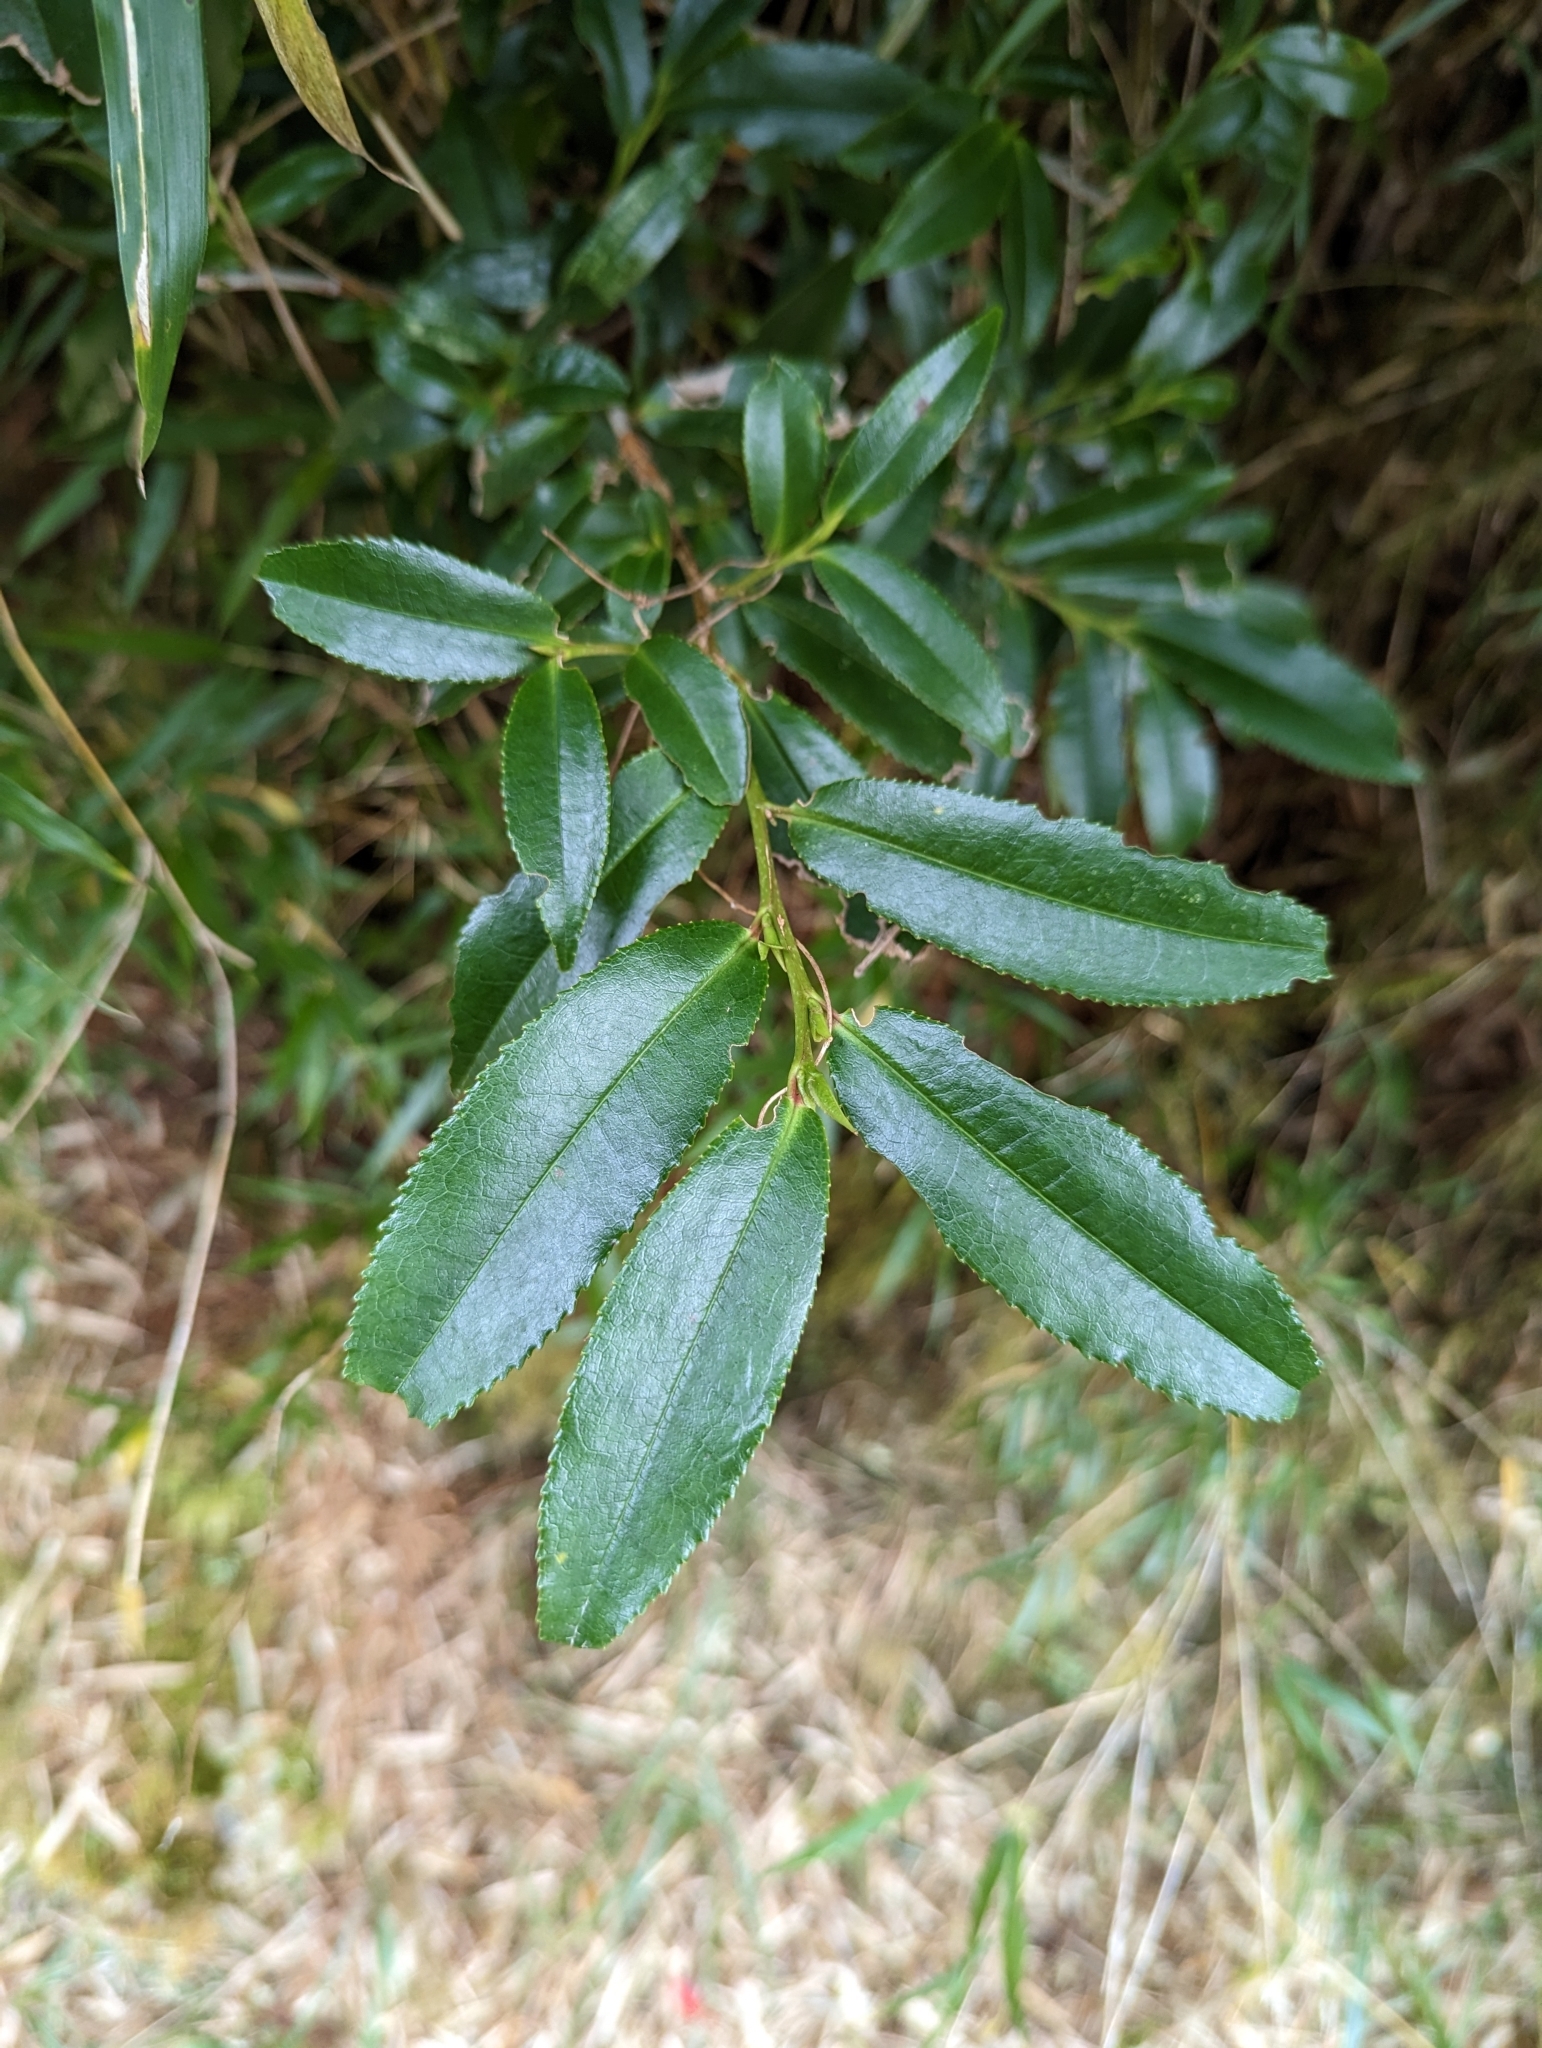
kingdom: Plantae
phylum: Tracheophyta
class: Magnoliopsida
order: Ericales
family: Pentaphylacaceae
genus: Eurya
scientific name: Eurya glaberrima
